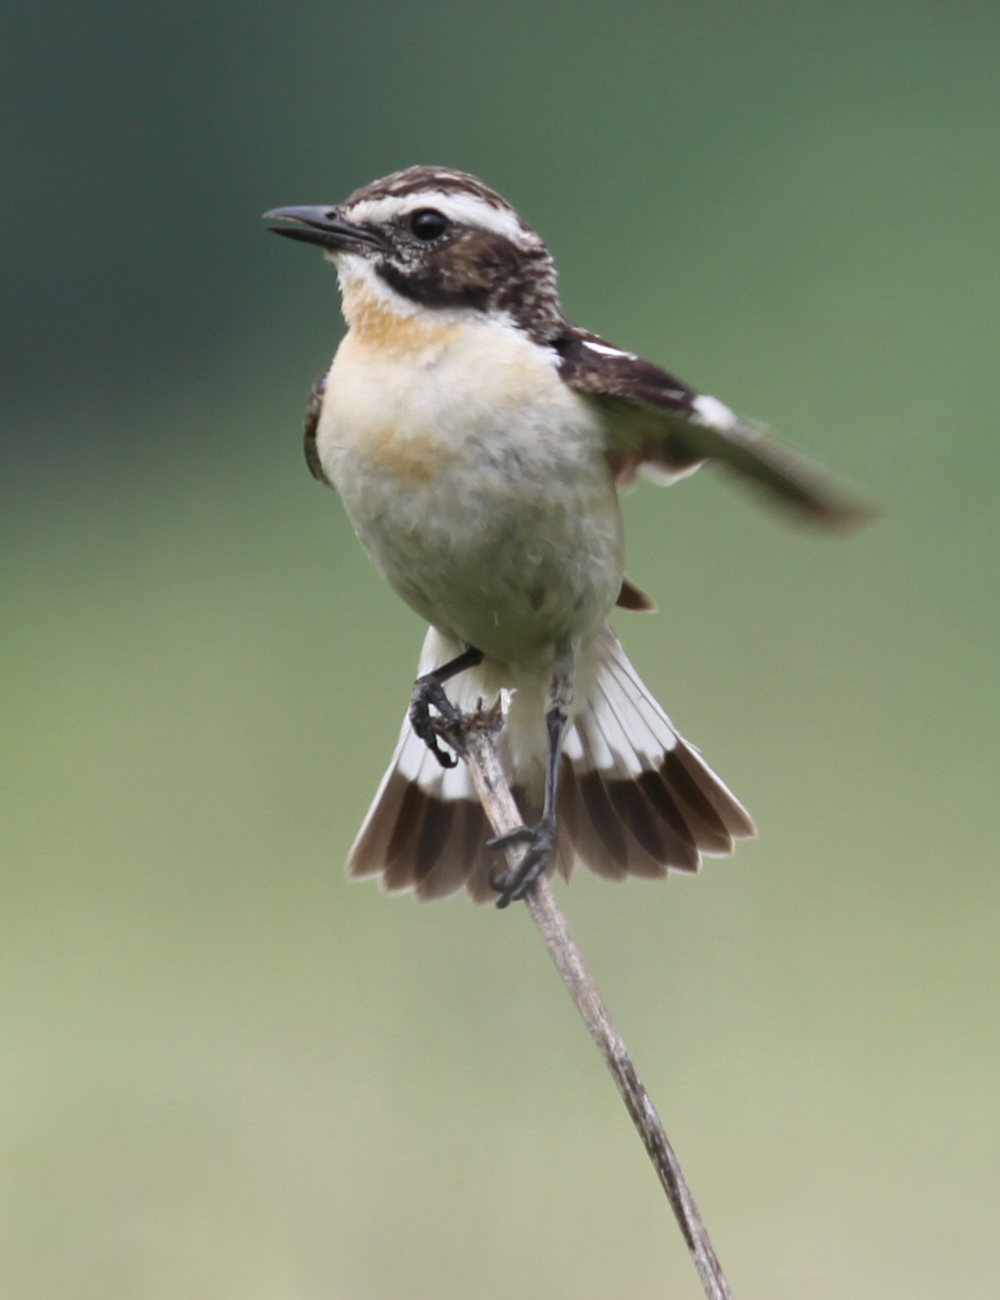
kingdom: Animalia
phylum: Chordata
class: Aves
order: Passeriformes
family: Muscicapidae
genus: Saxicola
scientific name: Saxicola rubetra
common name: Whinchat
